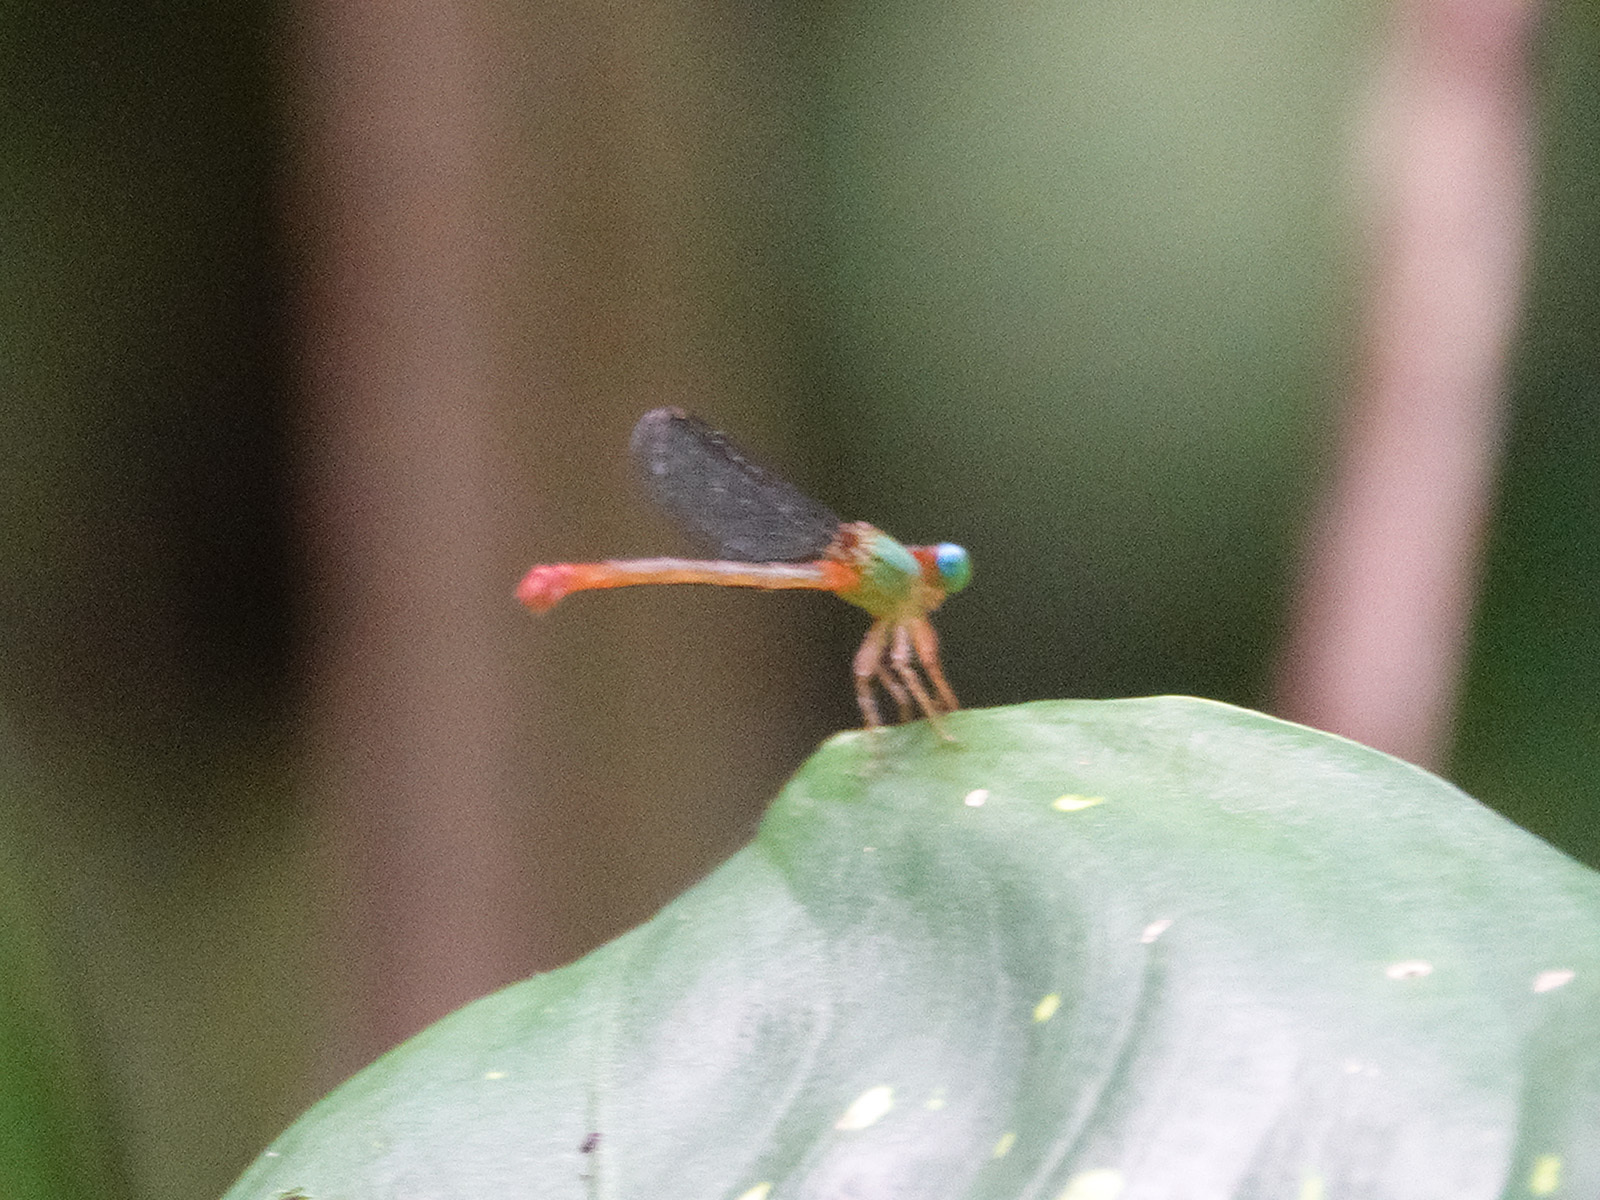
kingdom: Animalia
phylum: Arthropoda
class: Insecta
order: Odonata
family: Coenagrionidae
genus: Ceriagrion
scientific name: Ceriagrion cerinorubellum
